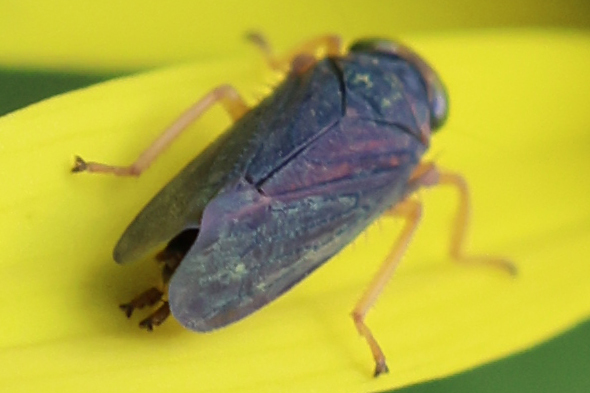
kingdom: Animalia
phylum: Arthropoda
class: Insecta
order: Hemiptera
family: Cicadellidae
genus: Jikradia
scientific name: Jikradia olitoria
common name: Coppery leafhopper
